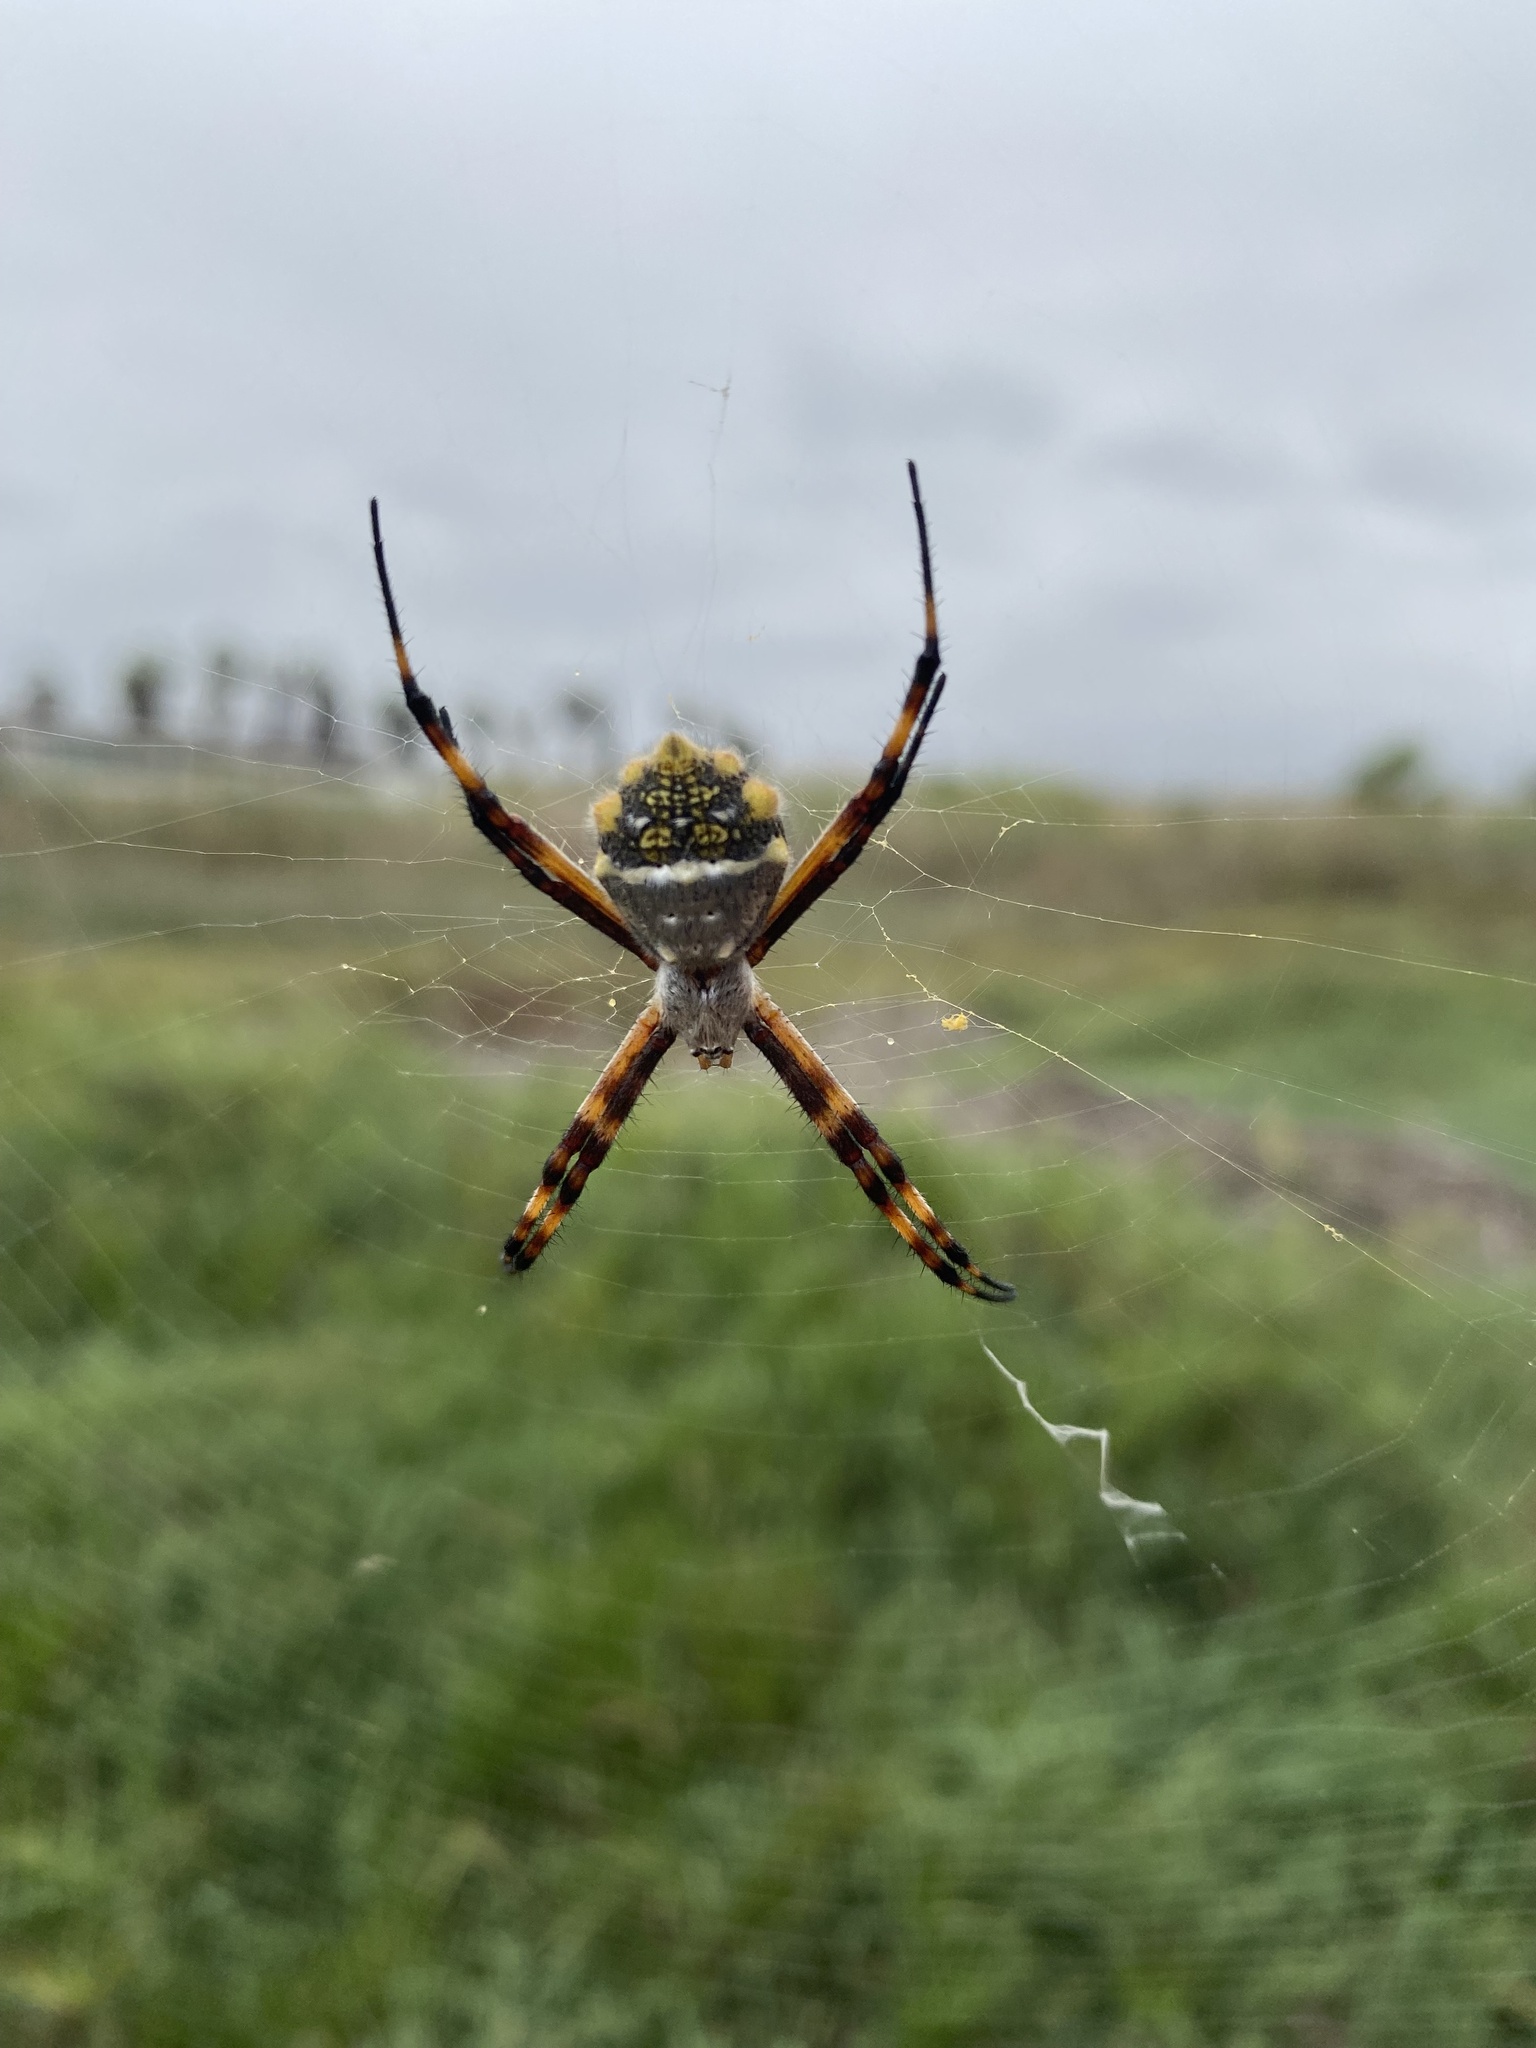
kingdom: Animalia
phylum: Arthropoda
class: Arachnida
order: Araneae
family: Araneidae
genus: Argiope
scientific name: Argiope argentata
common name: Orb weavers
